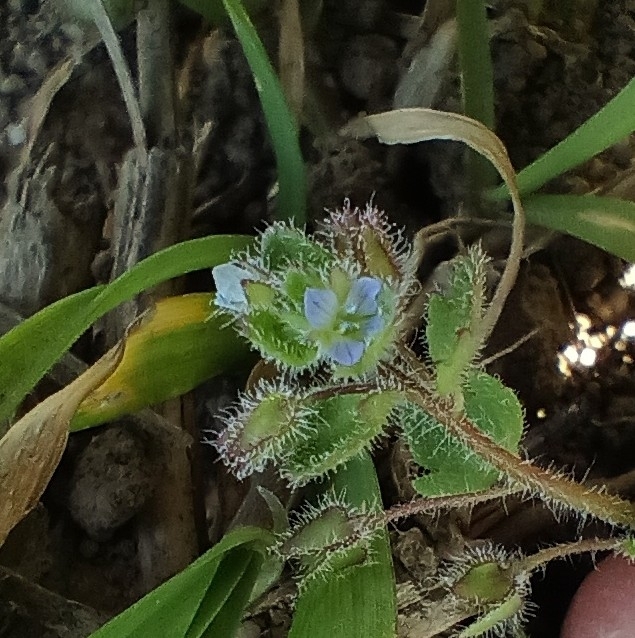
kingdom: Plantae
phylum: Tracheophyta
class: Magnoliopsida
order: Lamiales
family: Plantaginaceae
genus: Veronica
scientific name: Veronica sublobata
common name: False ivy-leaved speedwell
